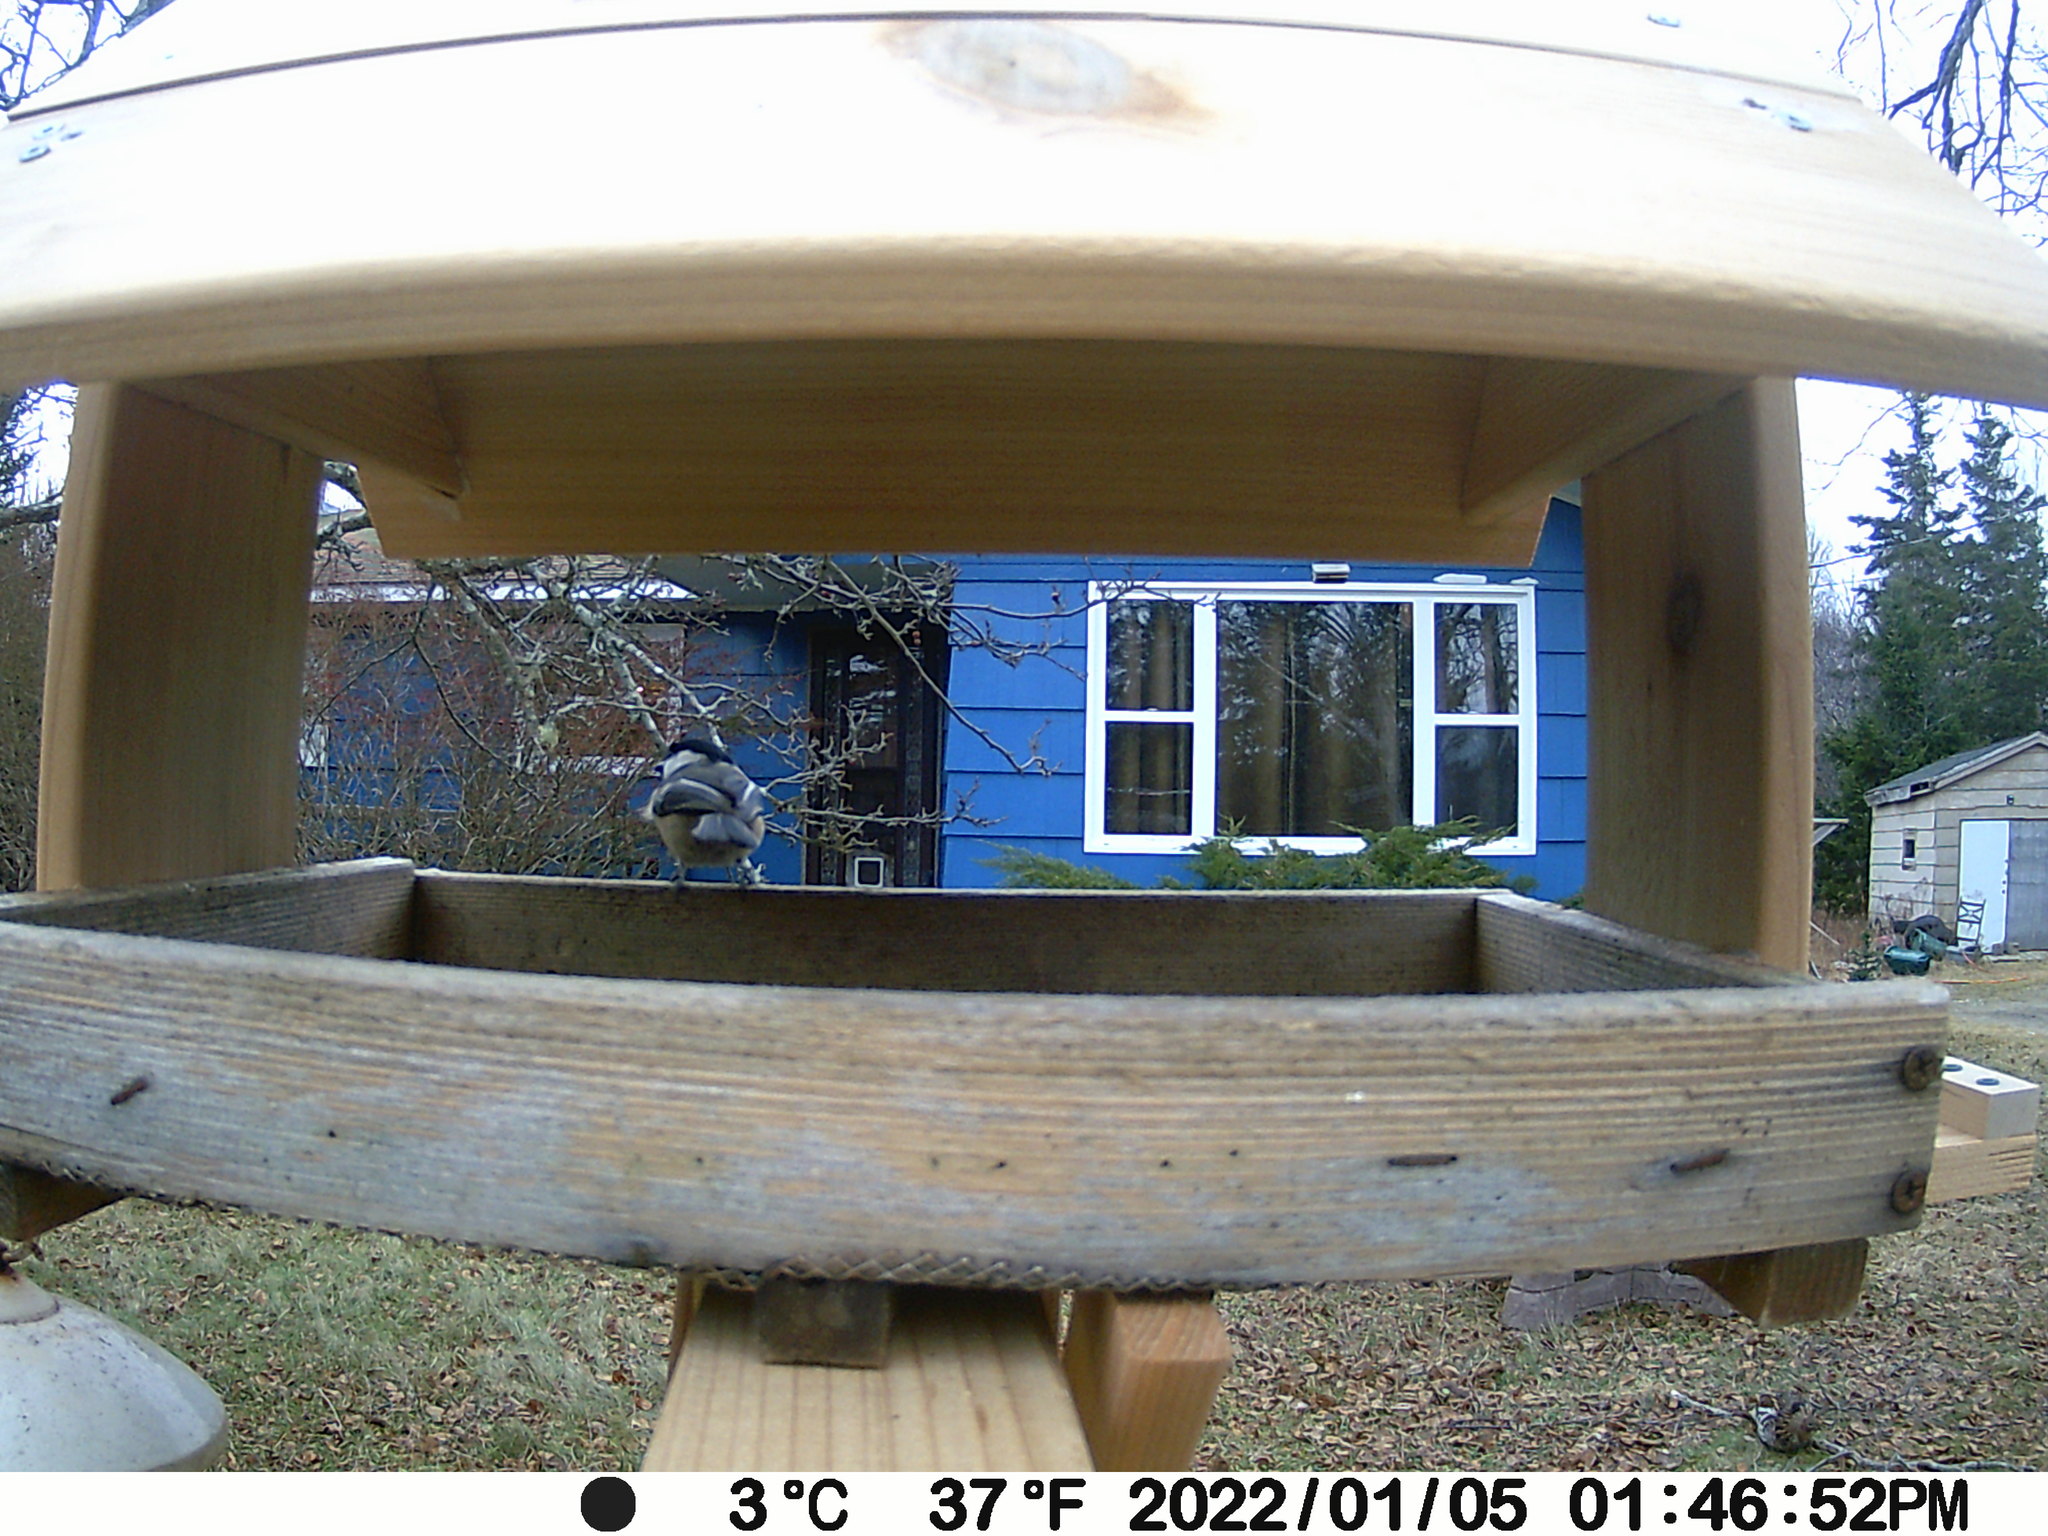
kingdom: Animalia
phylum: Chordata
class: Aves
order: Galliformes
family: Phasianidae
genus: Bonasa
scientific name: Bonasa umbellus
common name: Ruffed grouse
